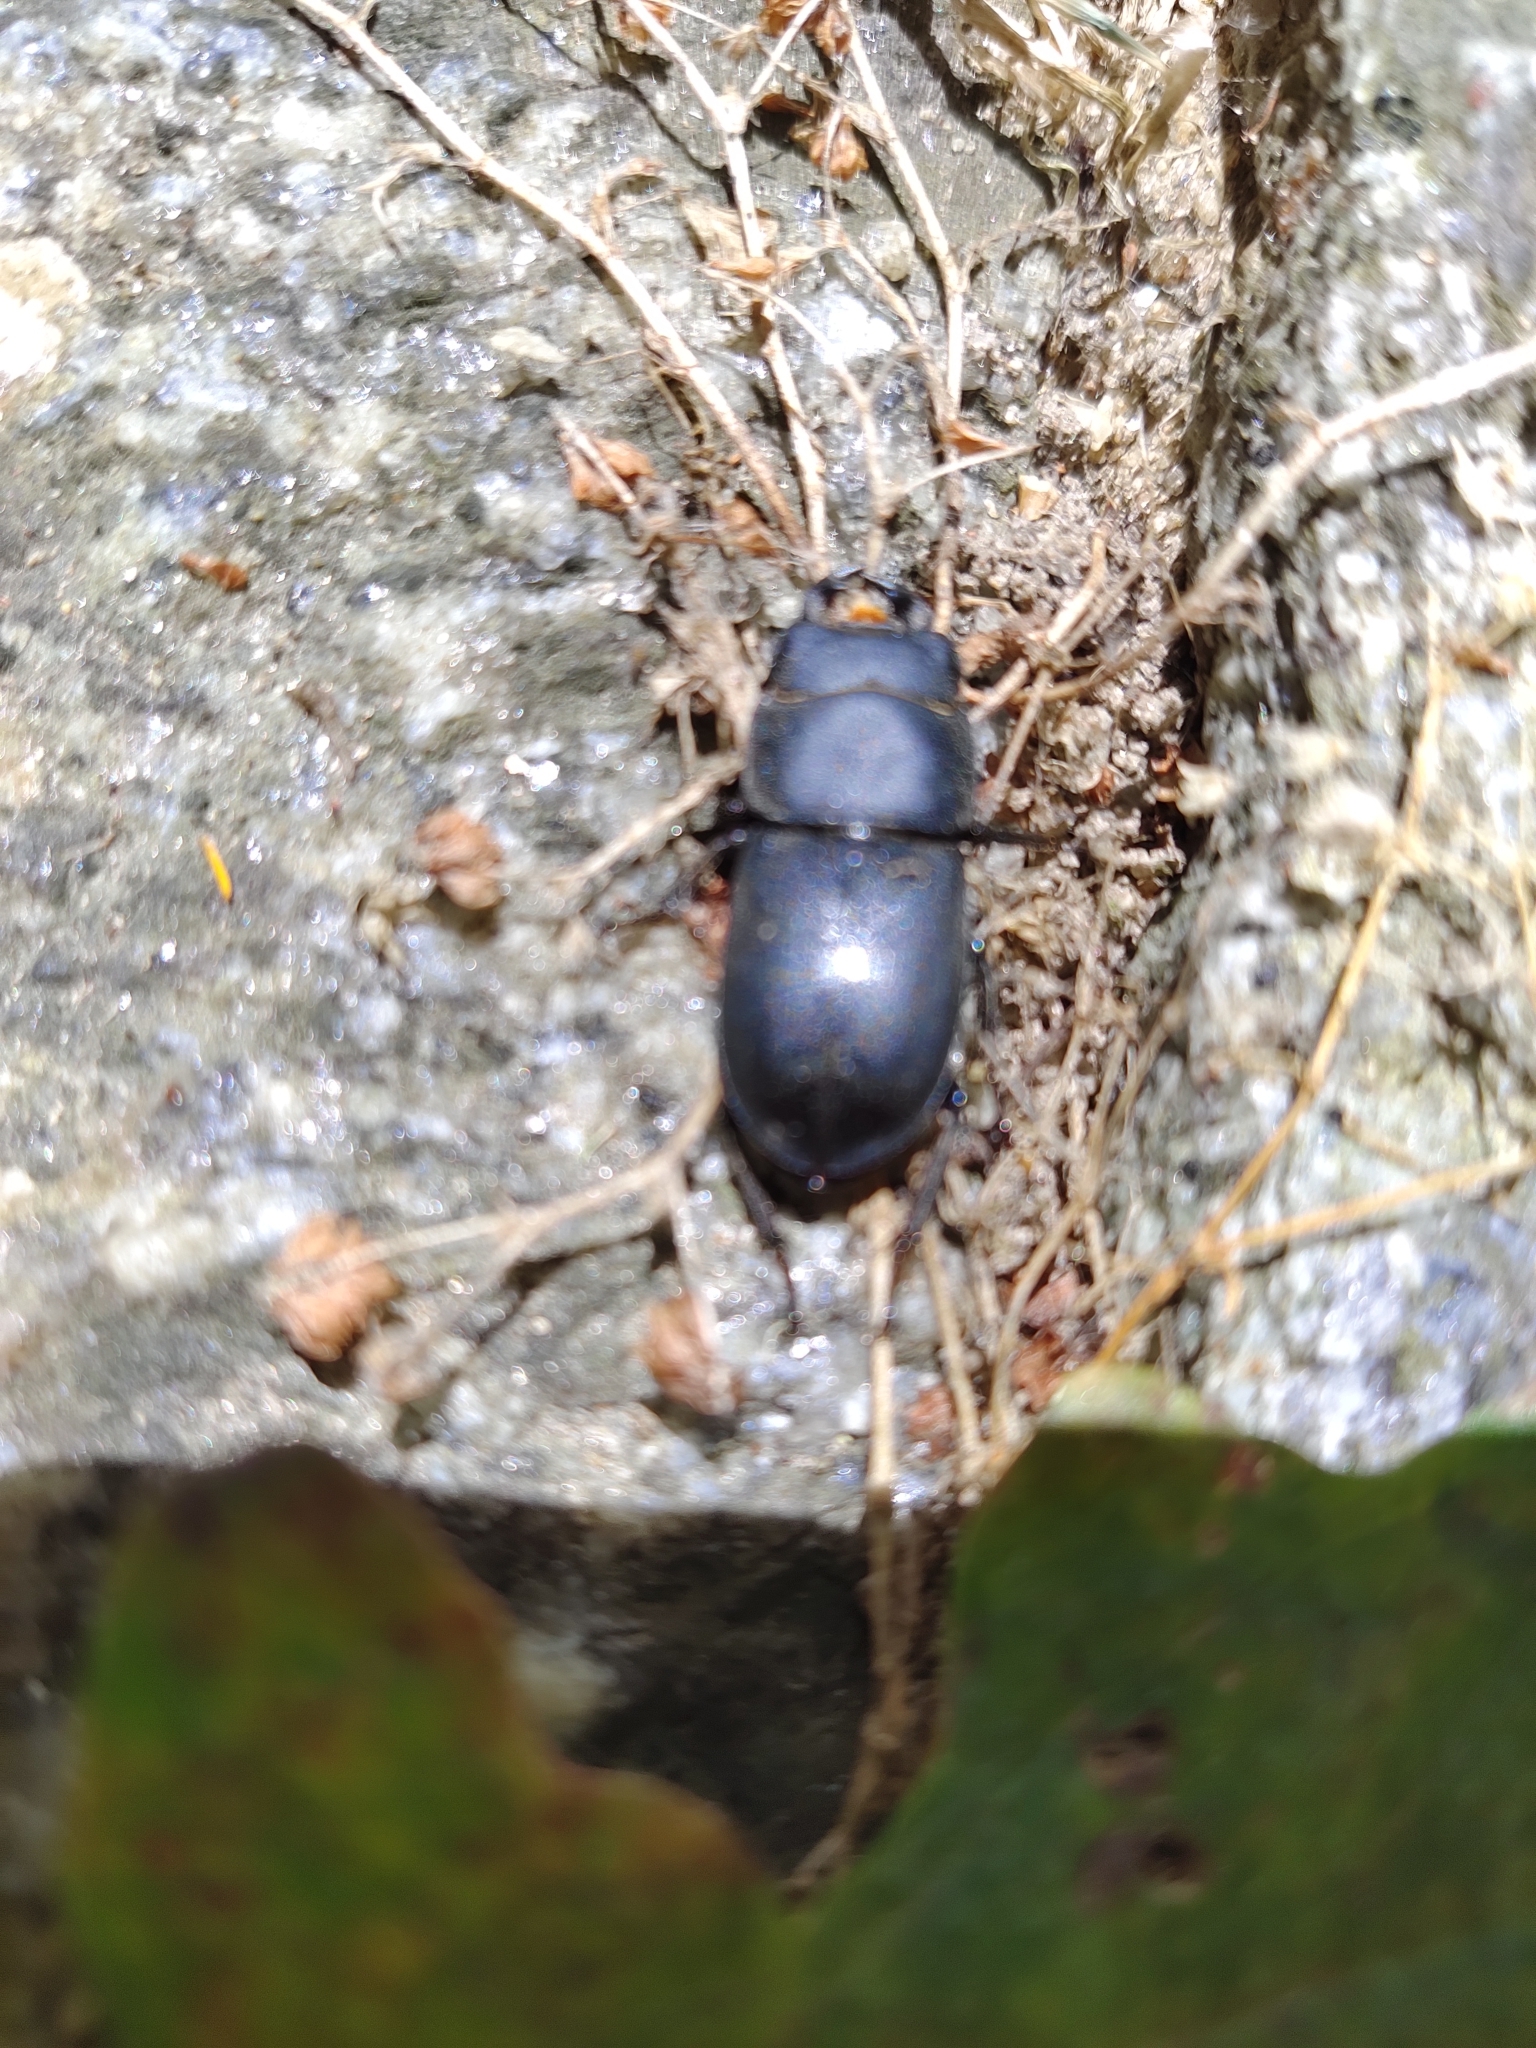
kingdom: Animalia
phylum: Arthropoda
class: Insecta
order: Coleoptera
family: Lucanidae
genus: Dorcus
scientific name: Dorcus parallelipipedus
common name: Lesser stag beetle
